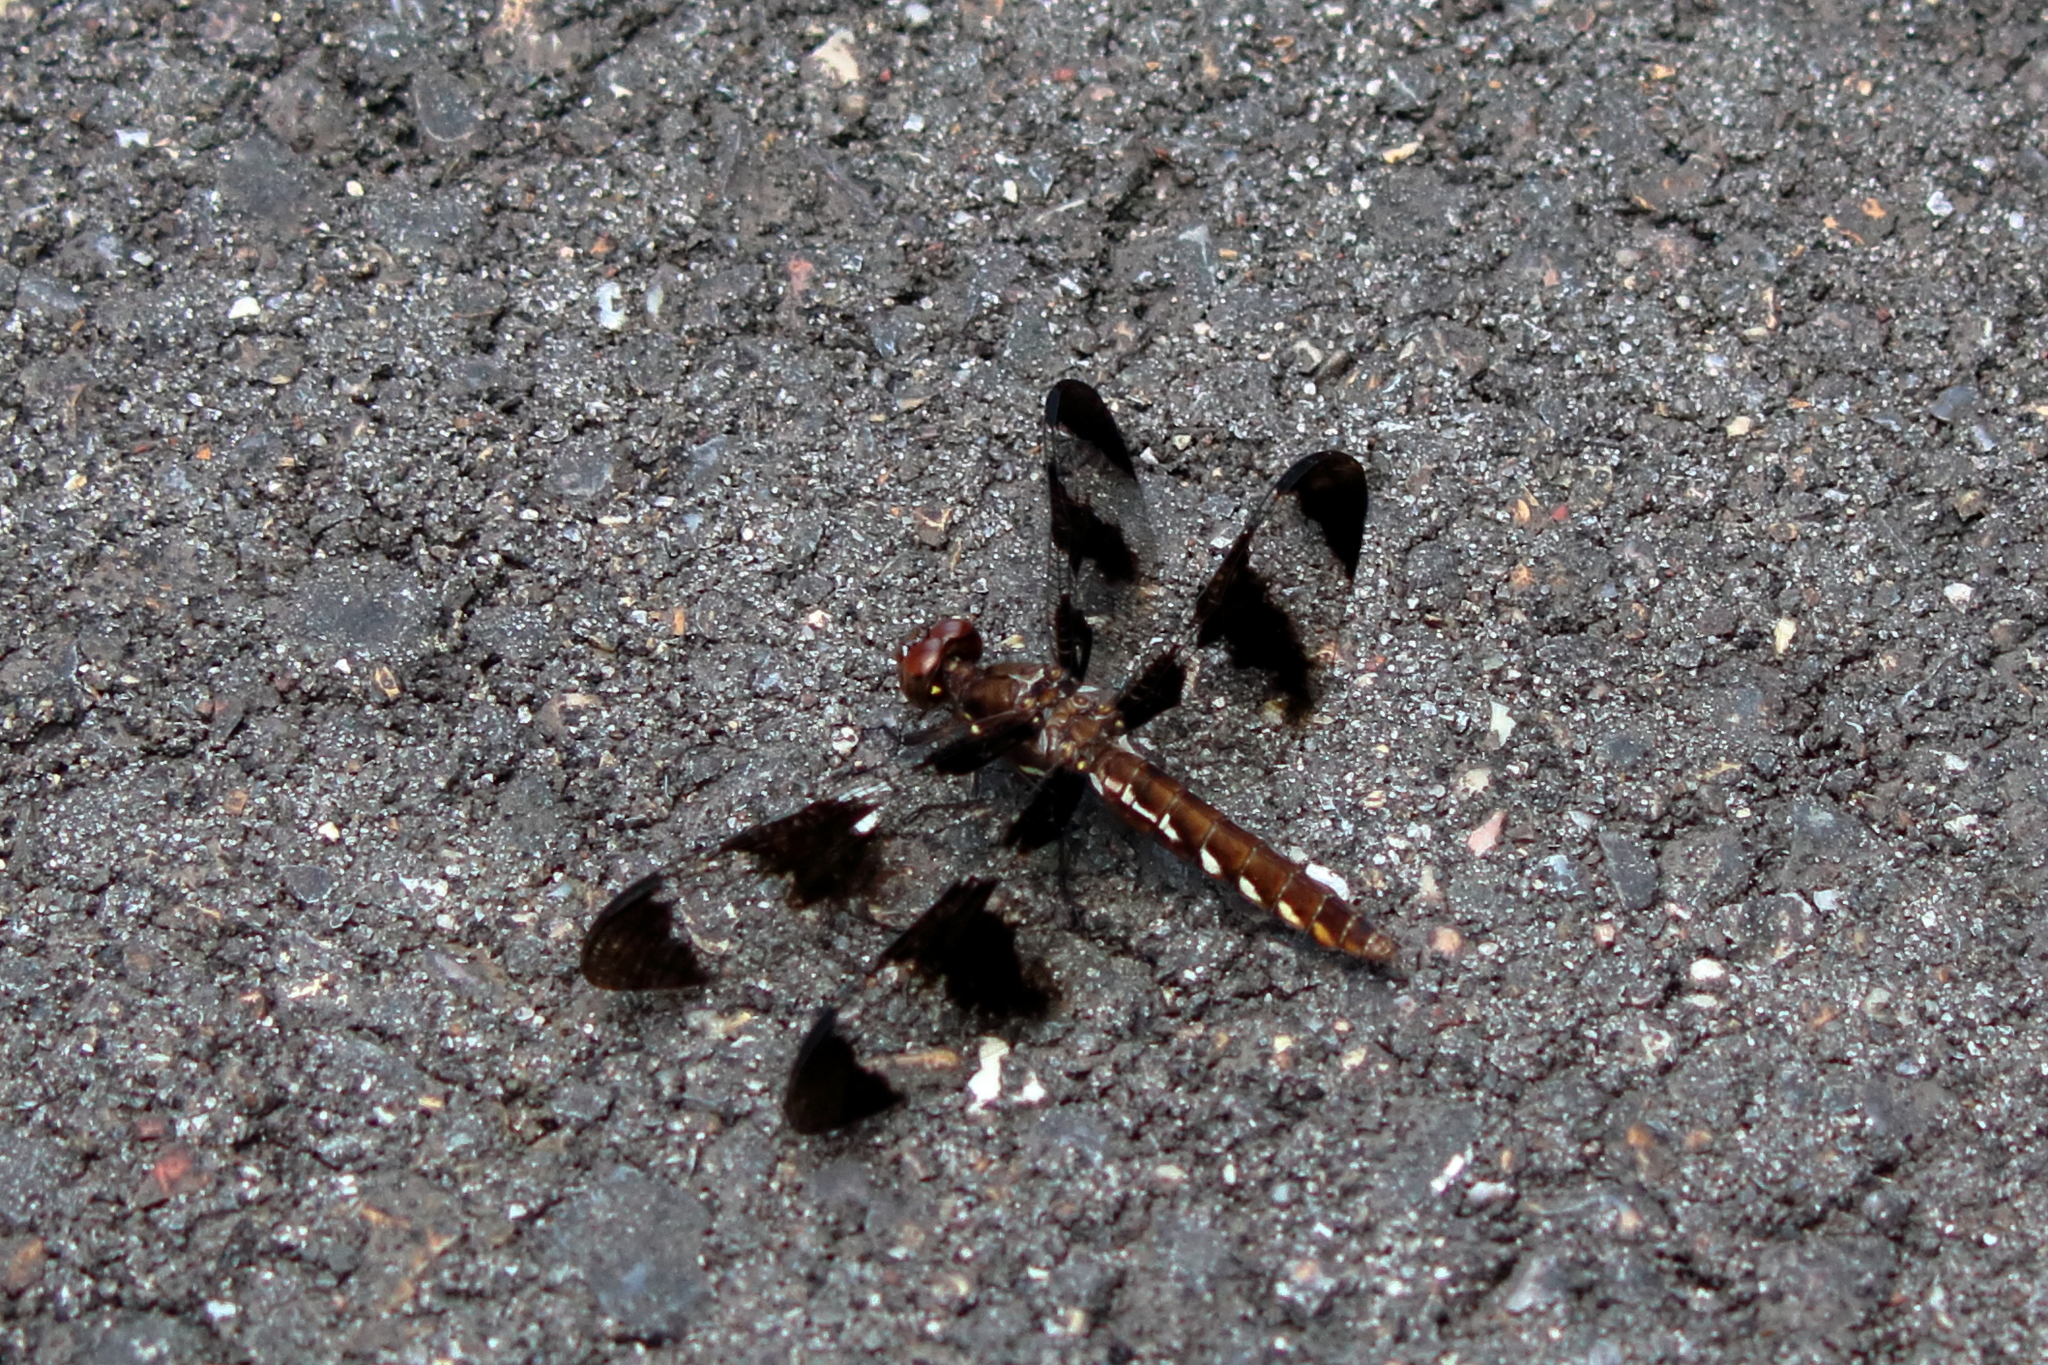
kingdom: Animalia
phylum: Arthropoda
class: Insecta
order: Odonata
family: Libellulidae
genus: Plathemis
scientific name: Plathemis lydia
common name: Common whitetail
